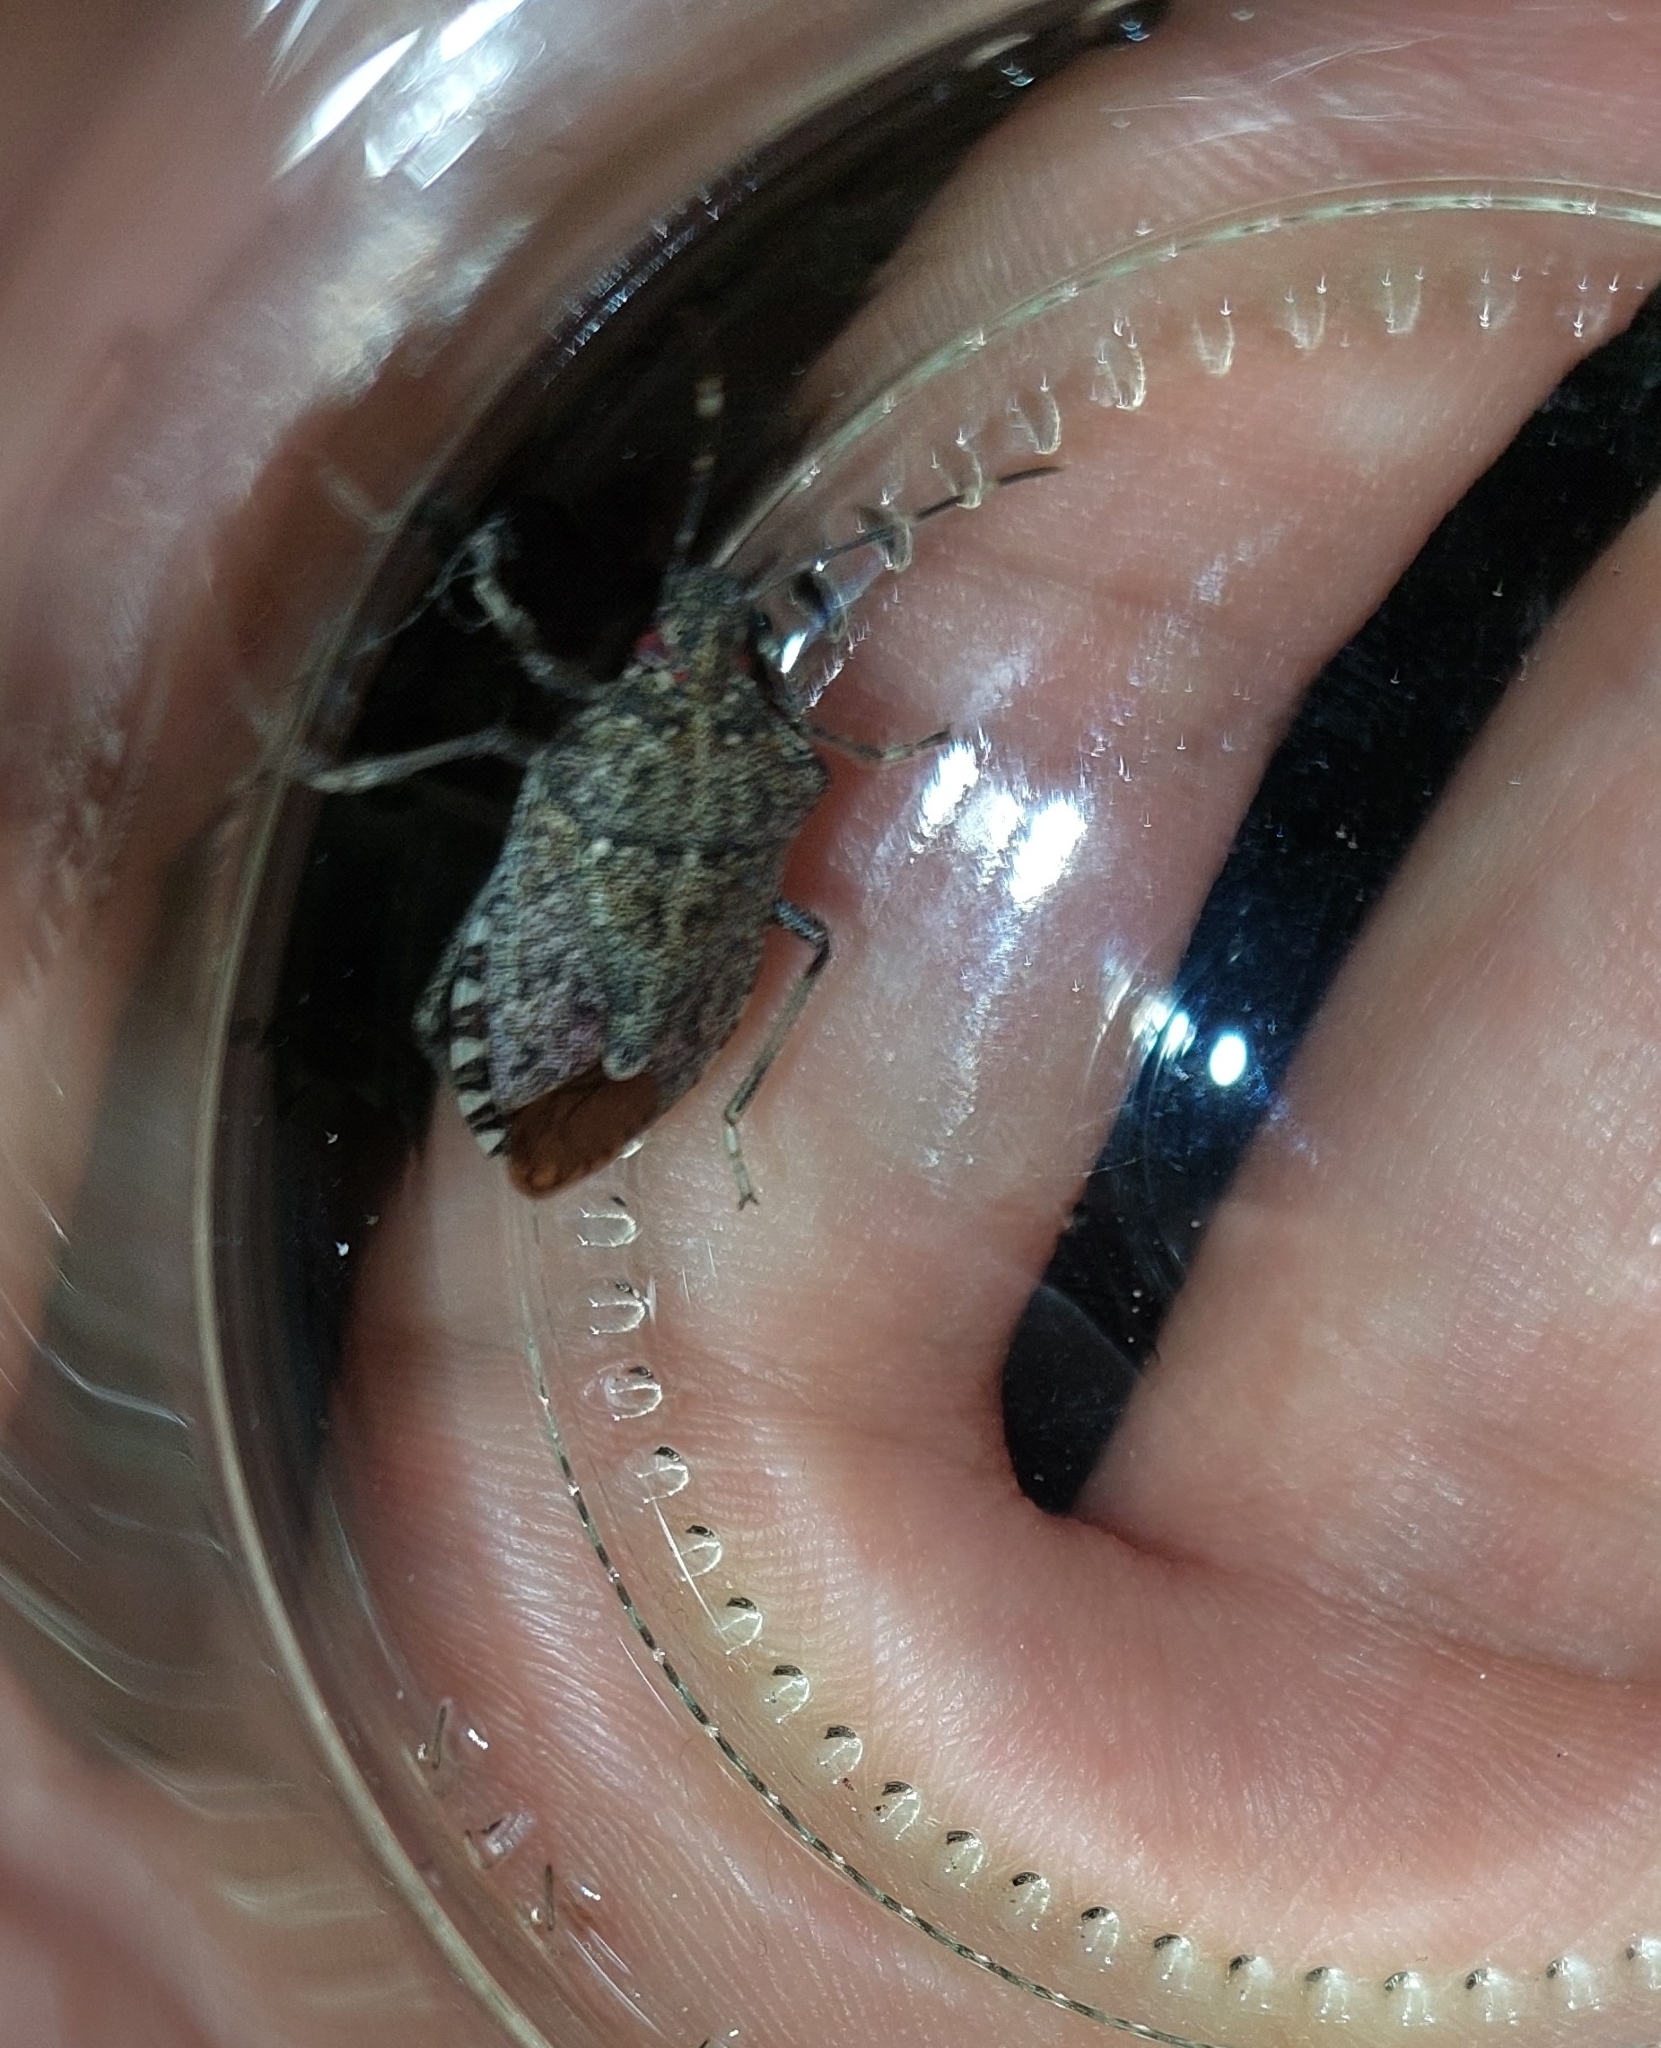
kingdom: Animalia
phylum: Arthropoda
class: Insecta
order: Hemiptera
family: Pentatomidae
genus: Halyomorpha
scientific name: Halyomorpha halys
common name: Brown marmorated stink bug
